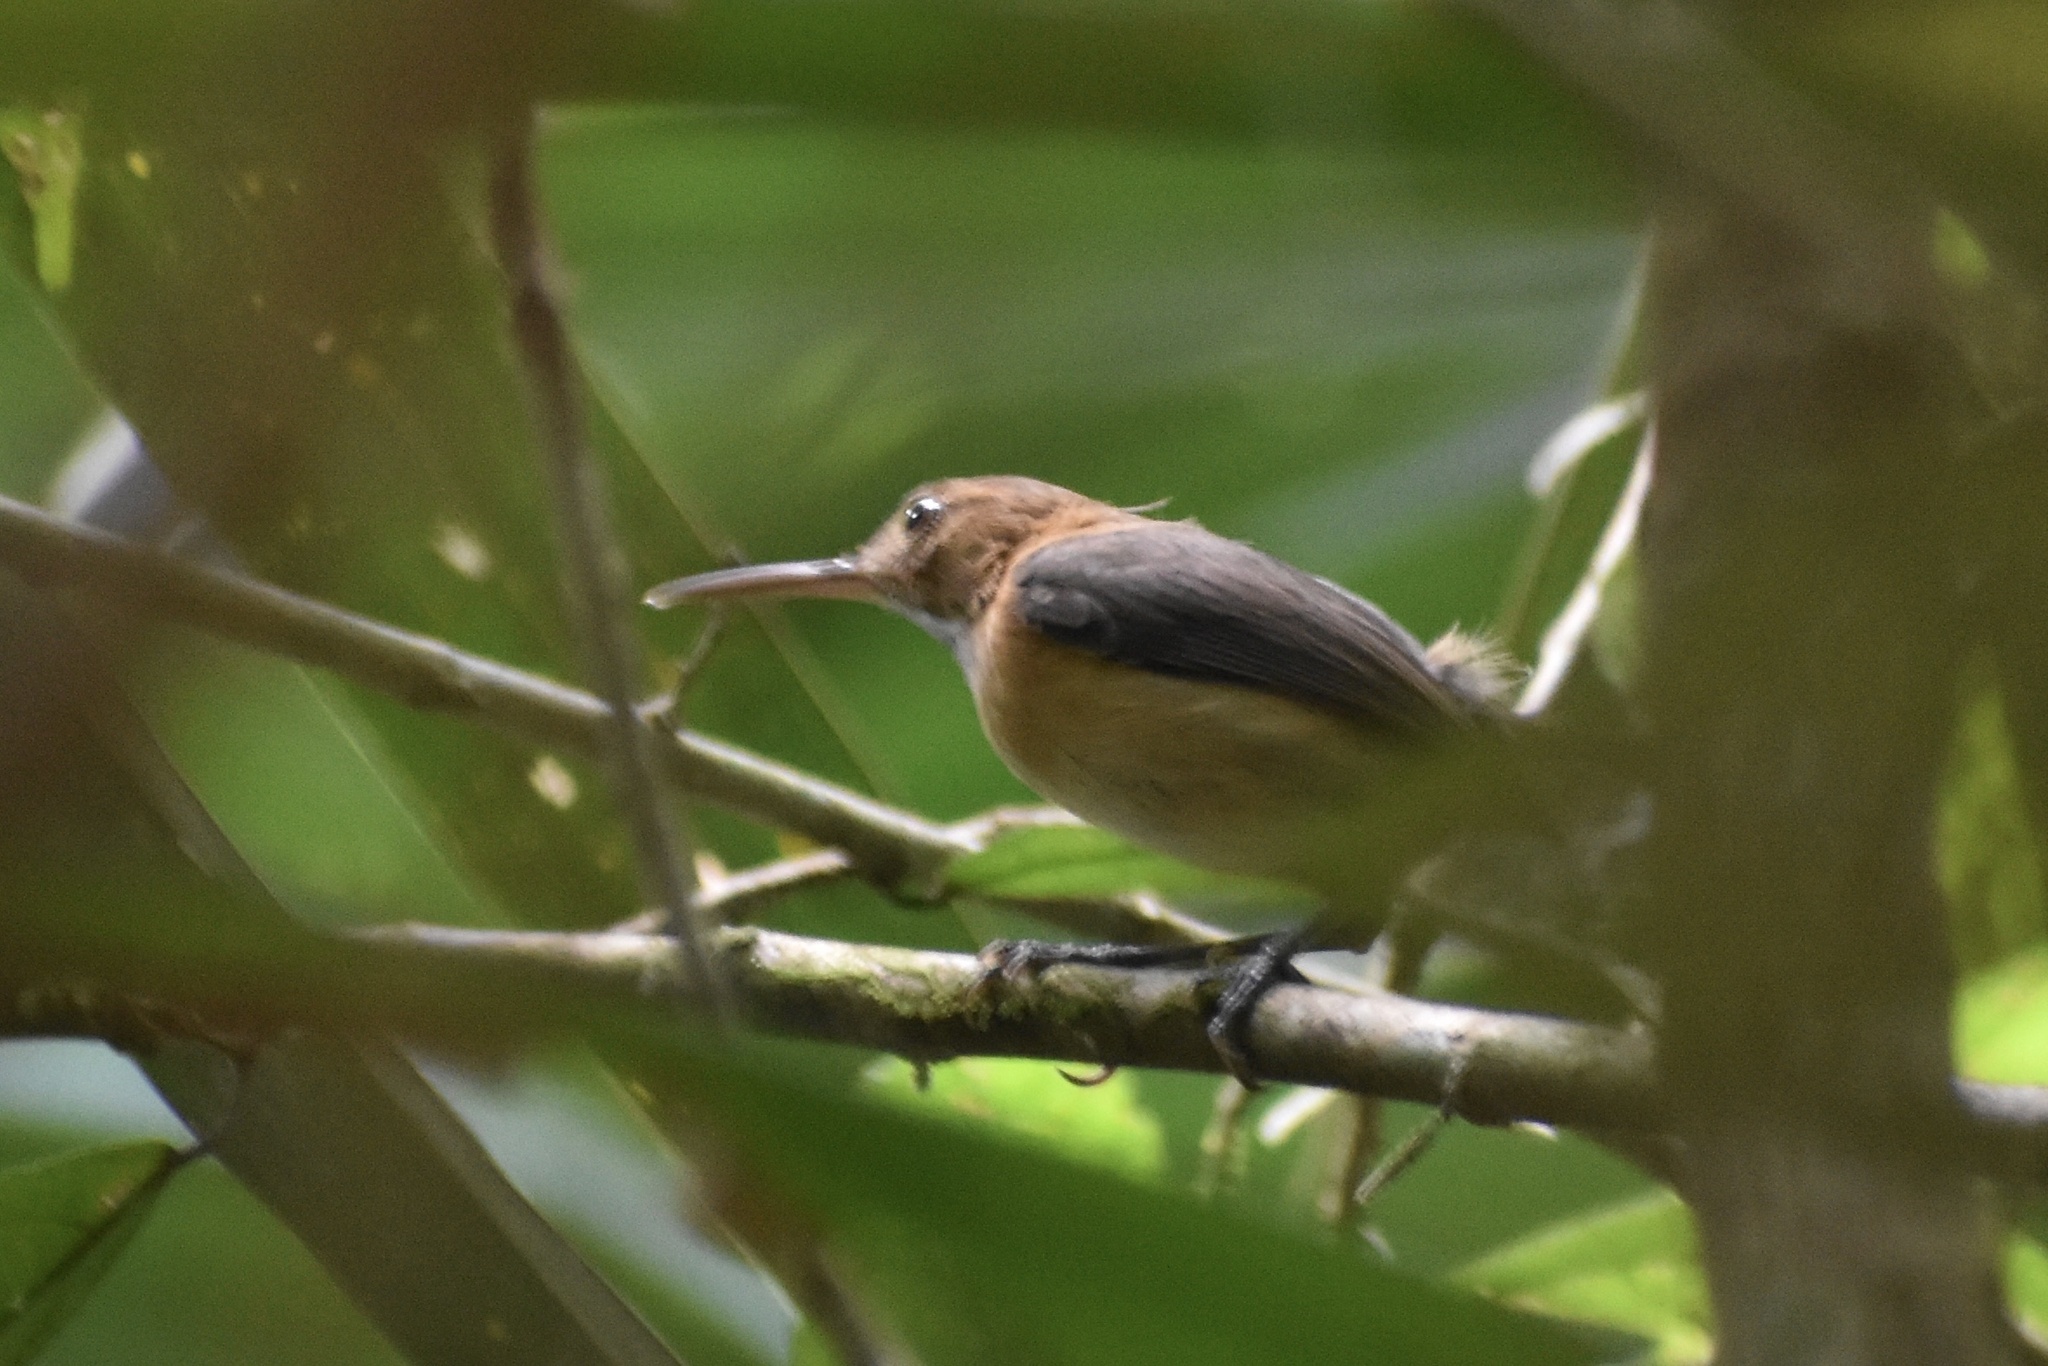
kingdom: Animalia
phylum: Chordata
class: Aves
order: Passeriformes
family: Polioptilidae
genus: Ramphocaenus
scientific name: Ramphocaenus melanurus
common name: Long-billed gnatwren
